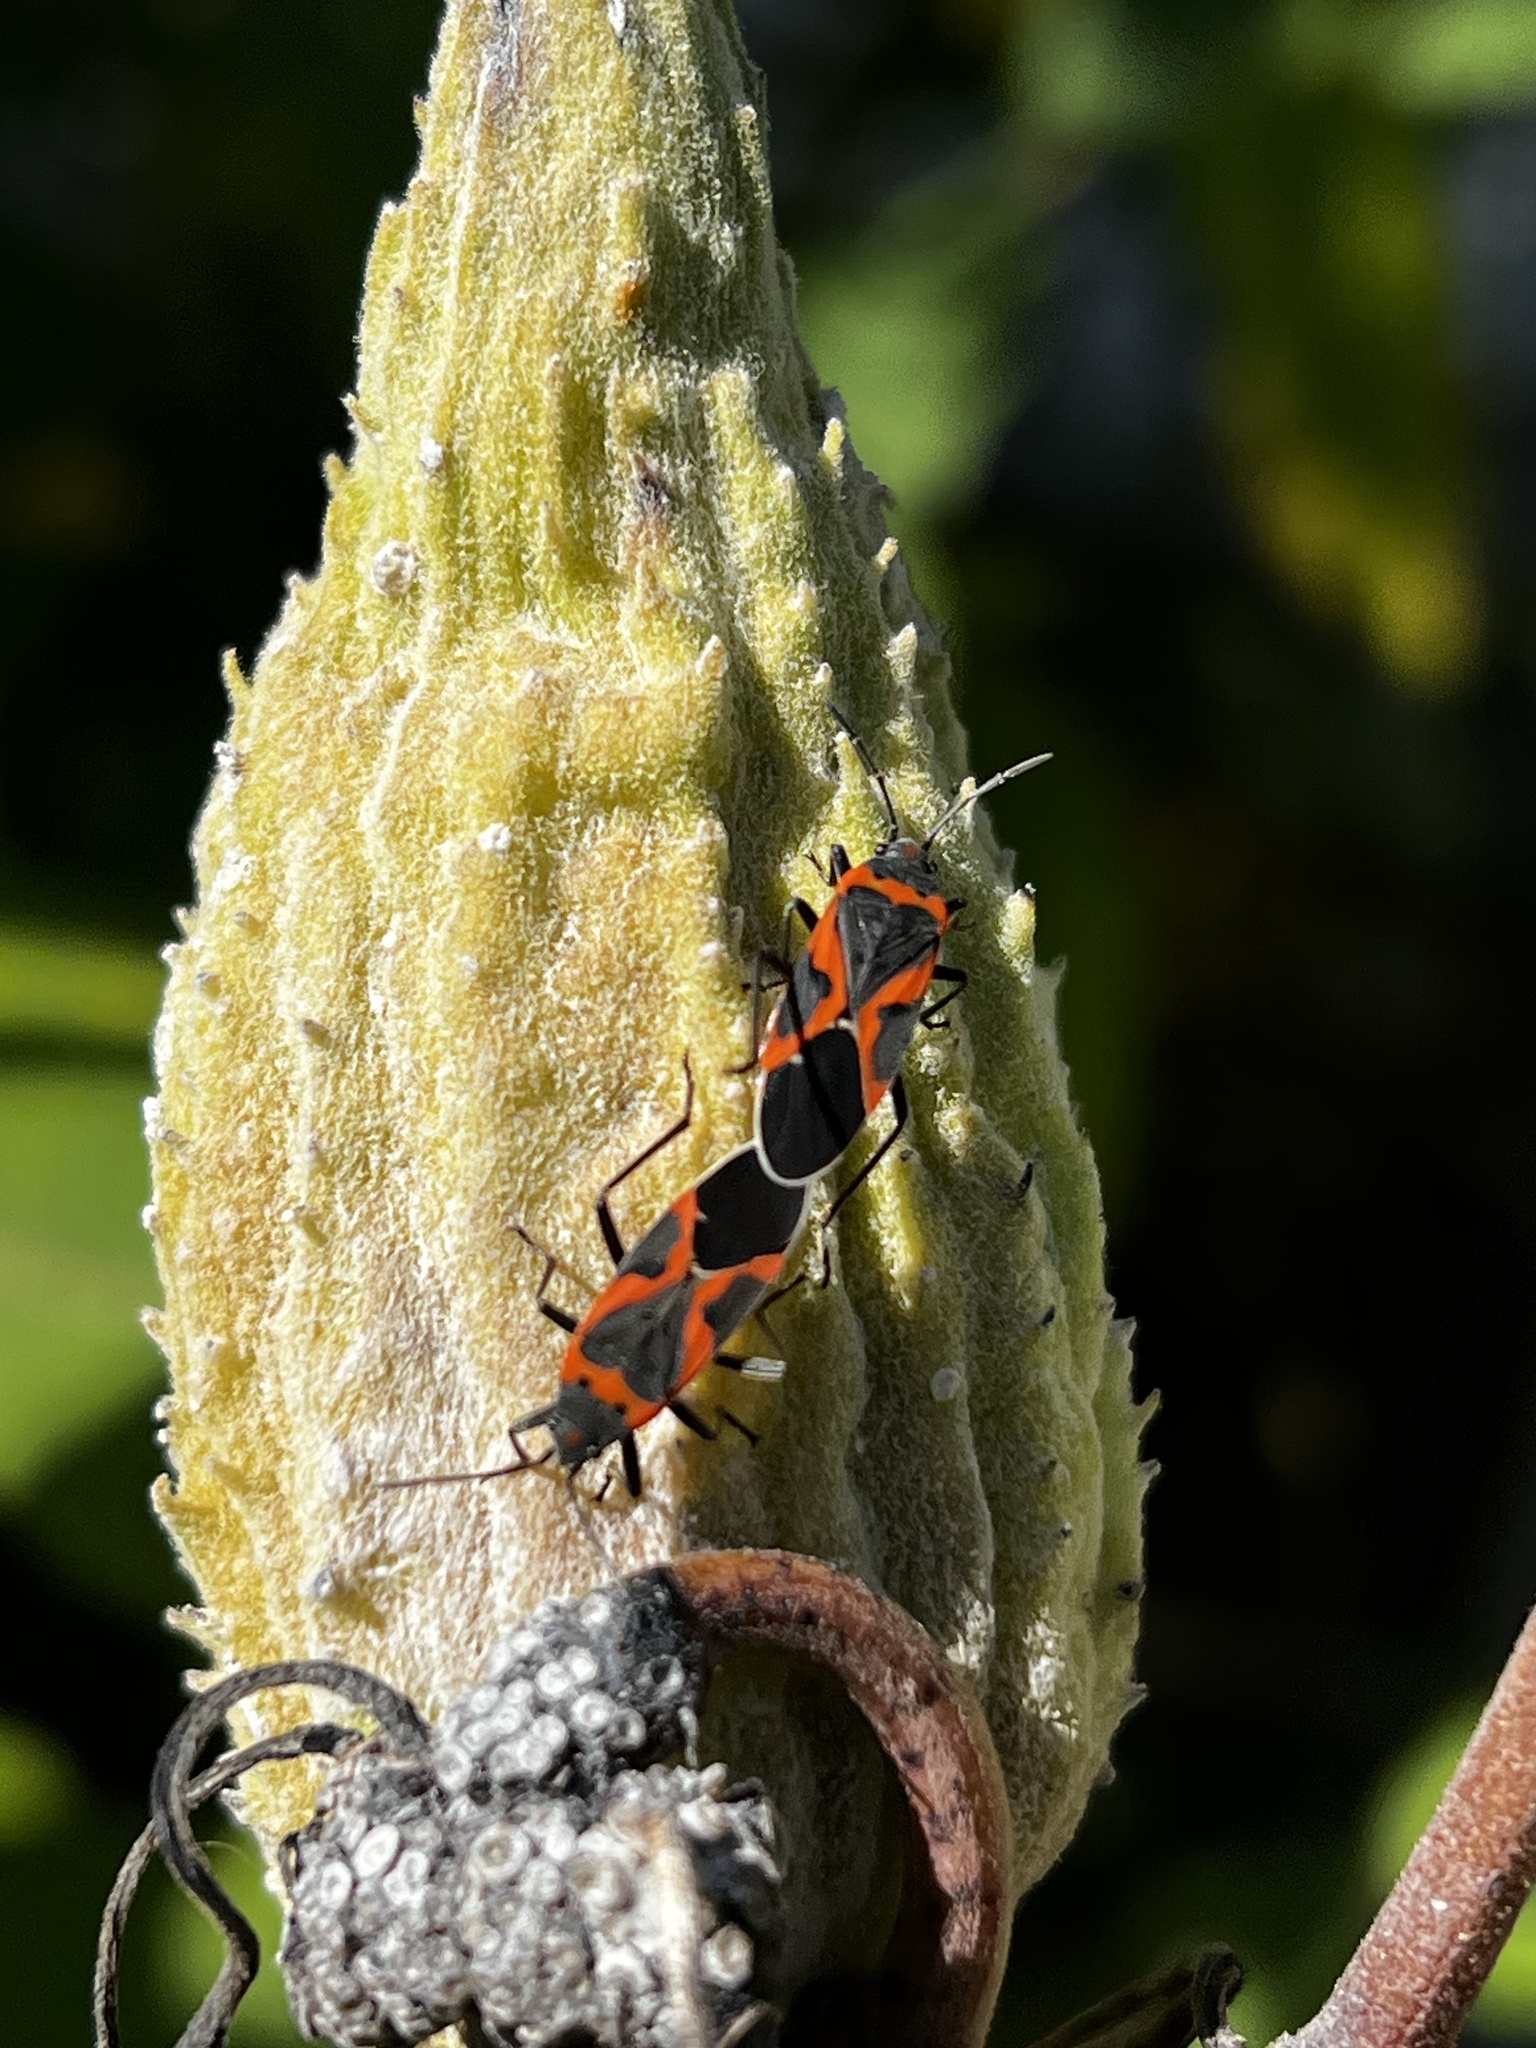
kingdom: Animalia
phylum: Arthropoda
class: Insecta
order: Hemiptera
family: Lygaeidae
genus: Lygaeus
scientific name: Lygaeus kalmii
